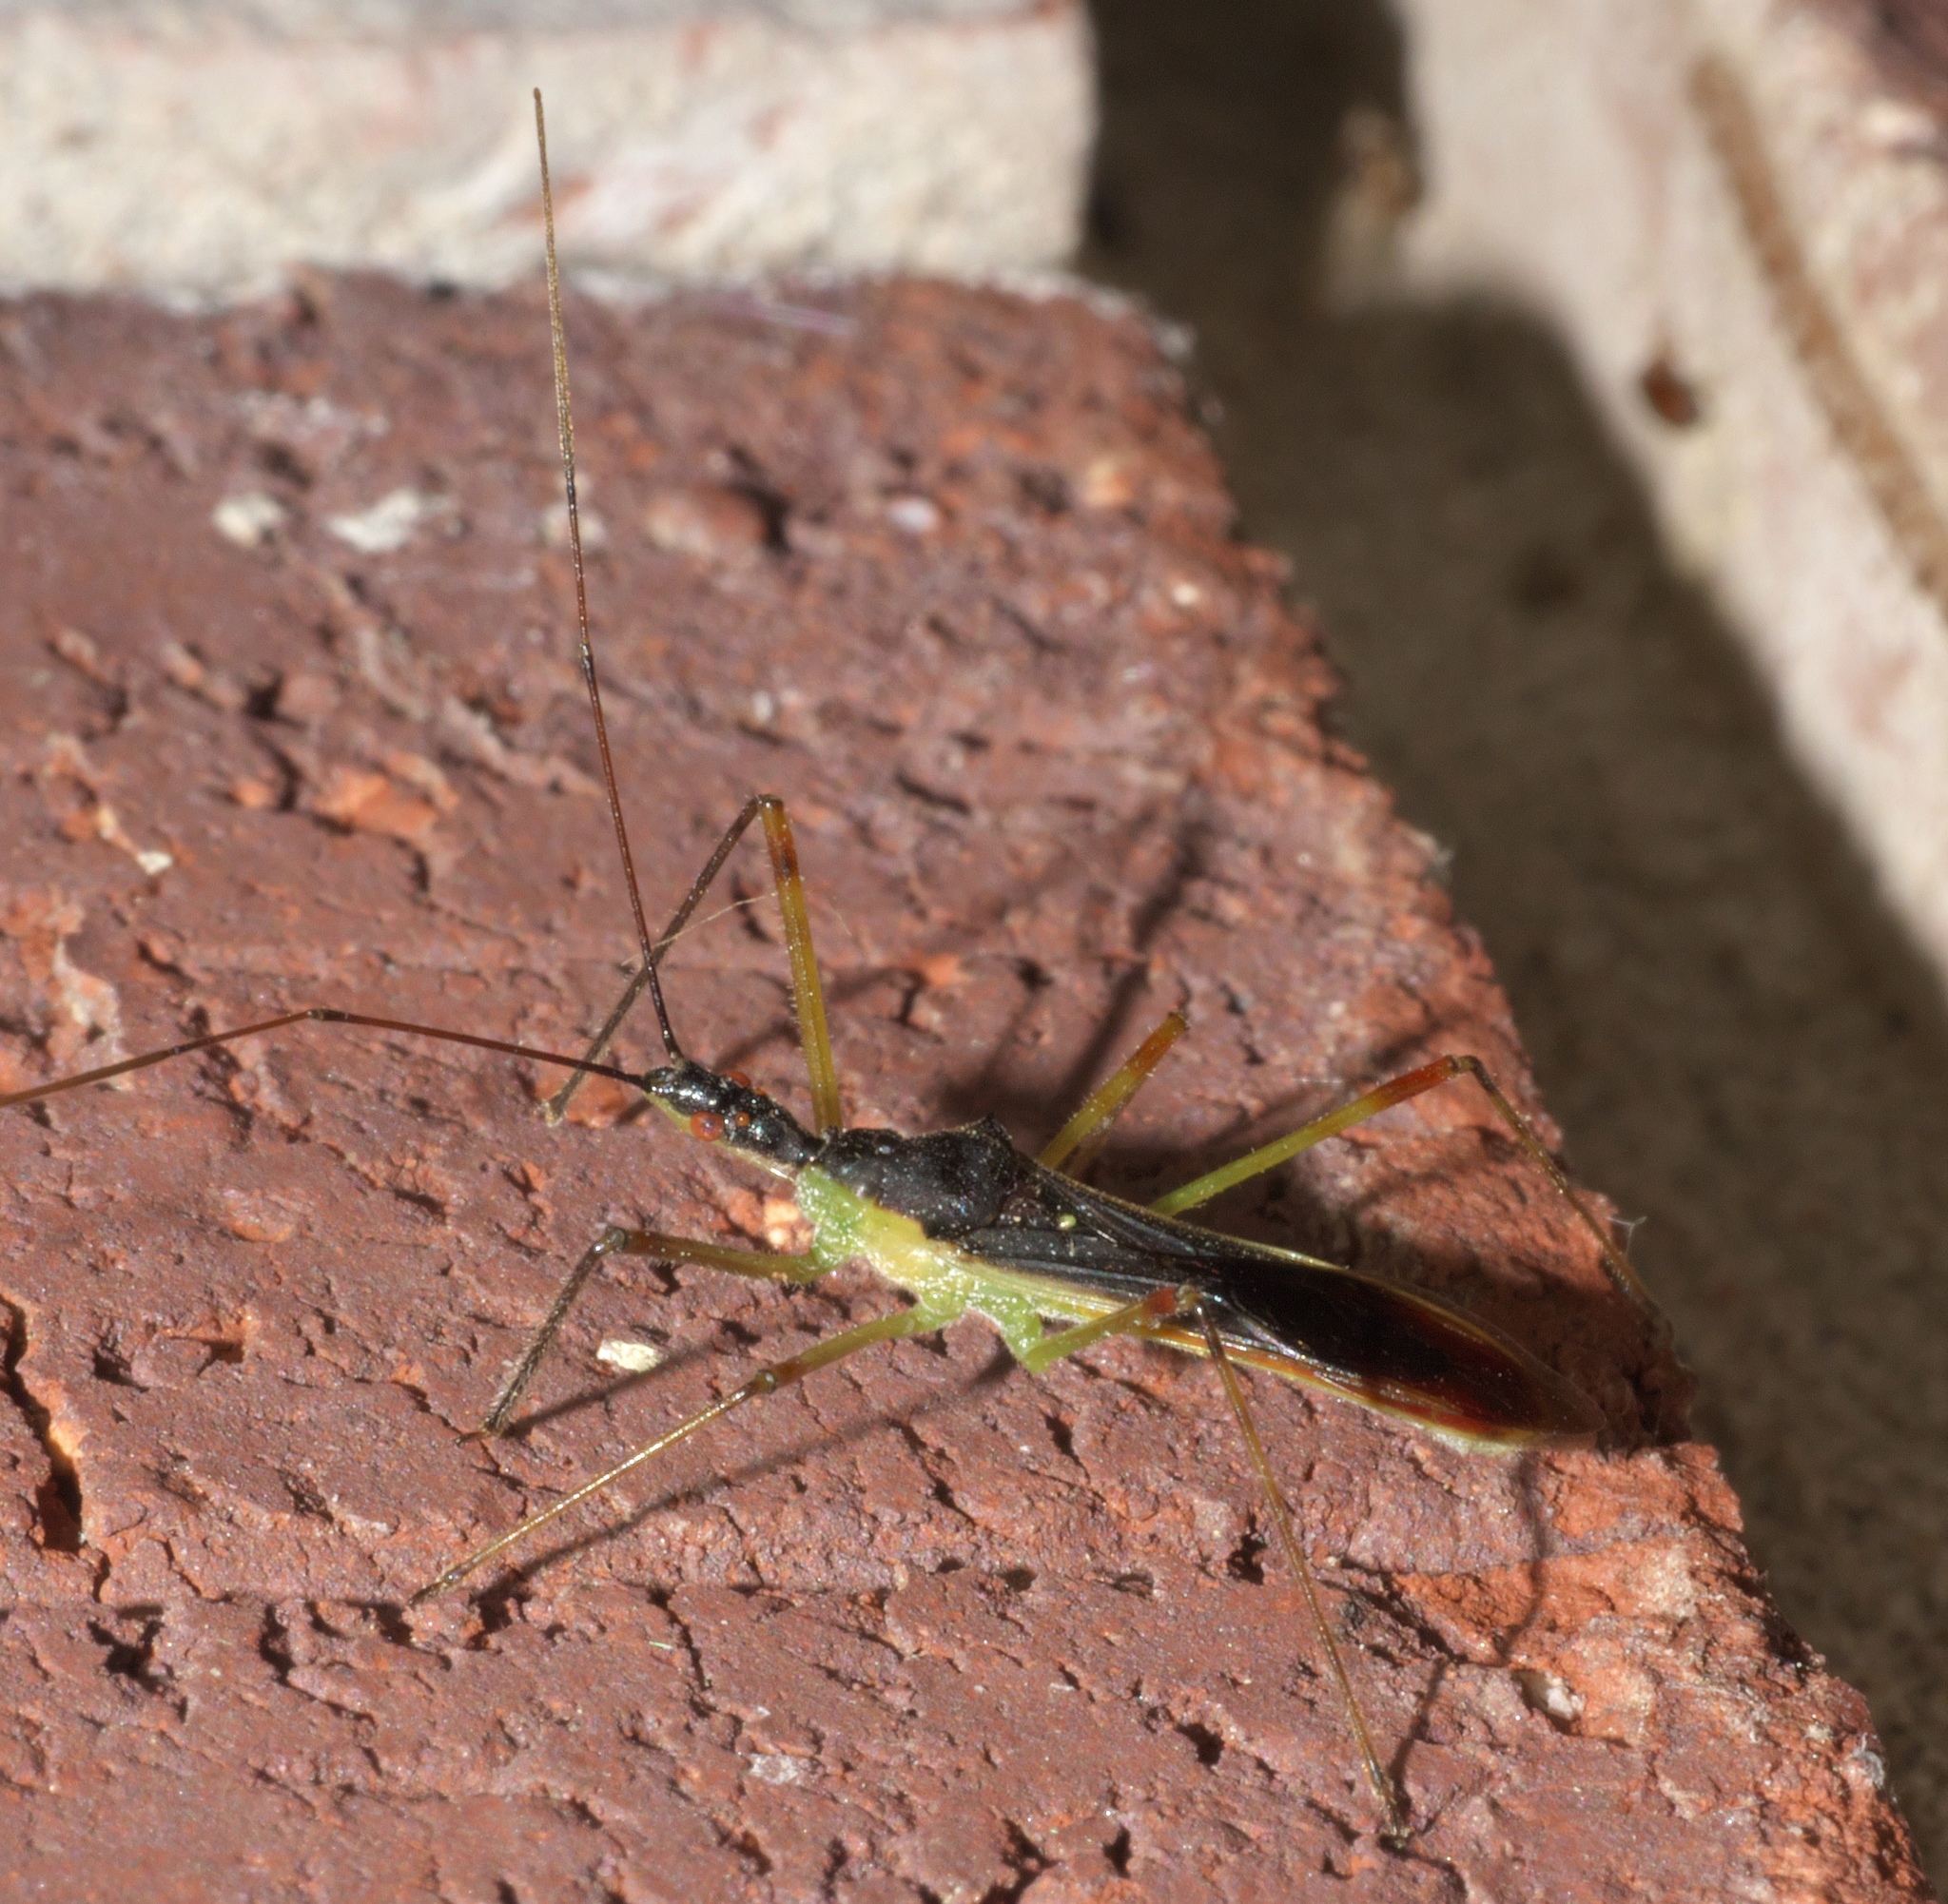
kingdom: Animalia
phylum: Arthropoda
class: Insecta
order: Hemiptera
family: Reduviidae
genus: Zelus
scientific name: Zelus luridus
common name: Pale green assassin bug
